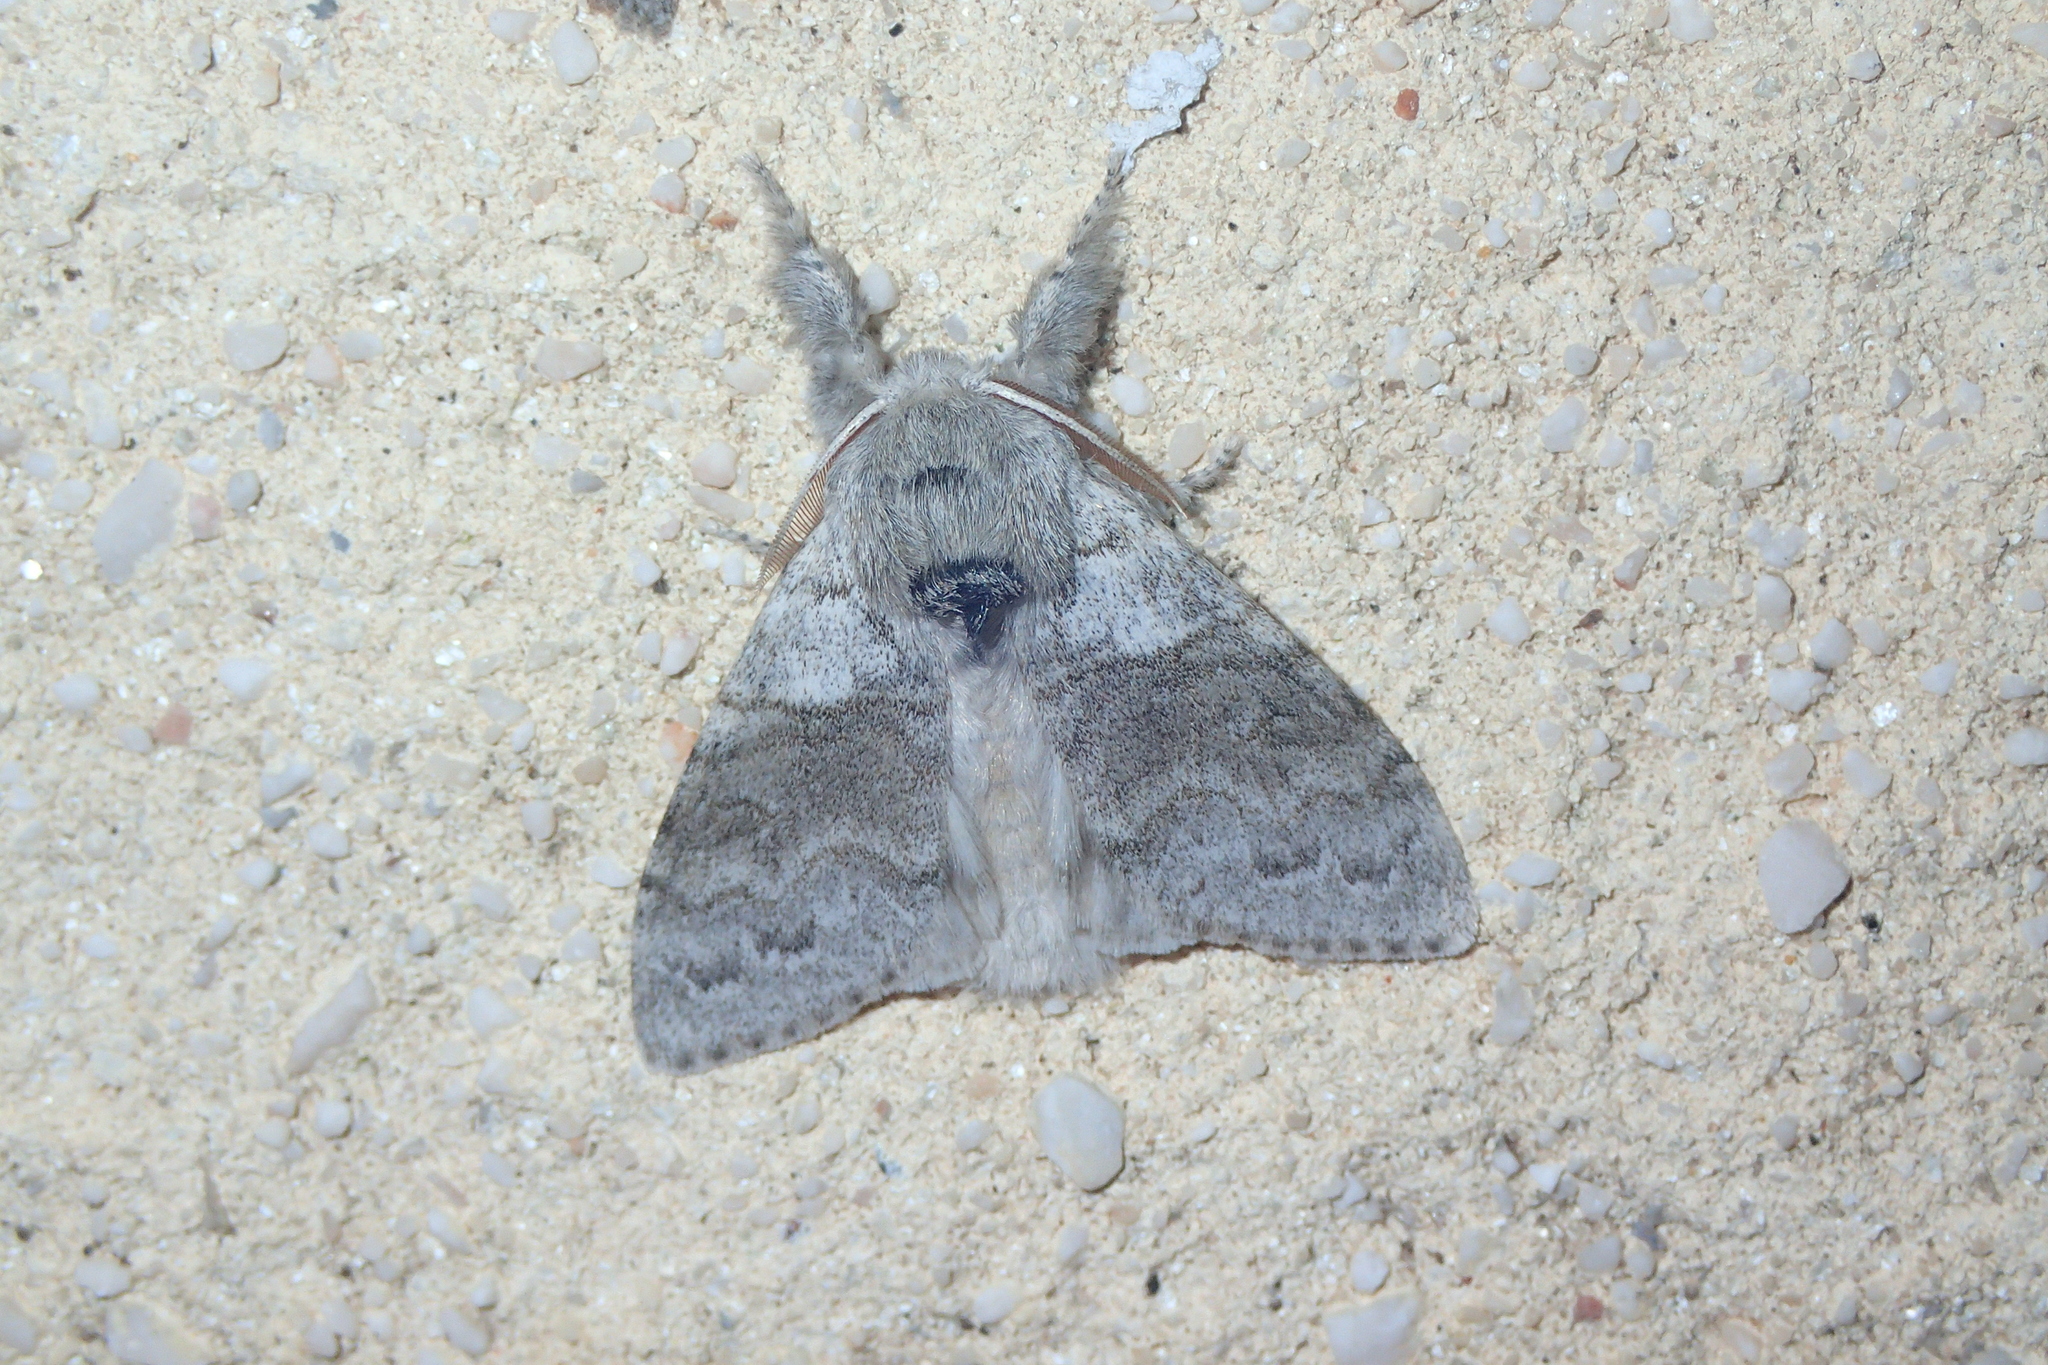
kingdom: Animalia
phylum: Arthropoda
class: Insecta
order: Lepidoptera
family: Erebidae
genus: Calliteara
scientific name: Calliteara pudibunda
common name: Pale tussock
